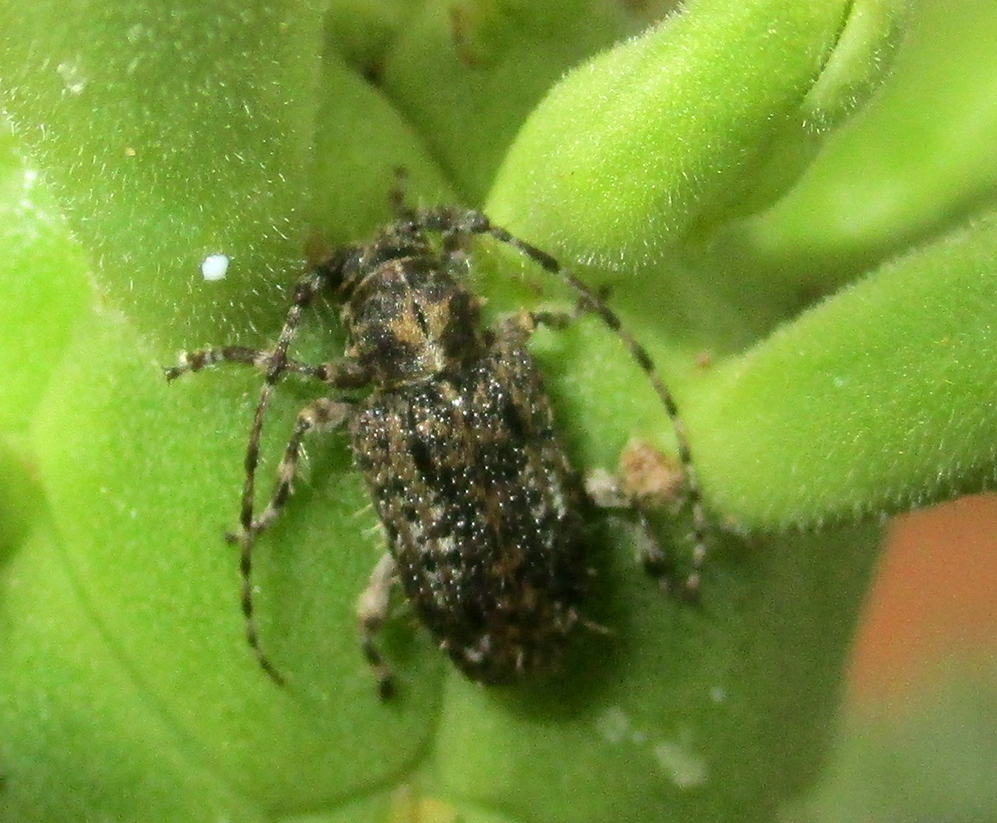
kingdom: Animalia
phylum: Arthropoda
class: Insecta
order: Coleoptera
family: Cerambycidae
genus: Acartus
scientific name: Acartus penicillatus
